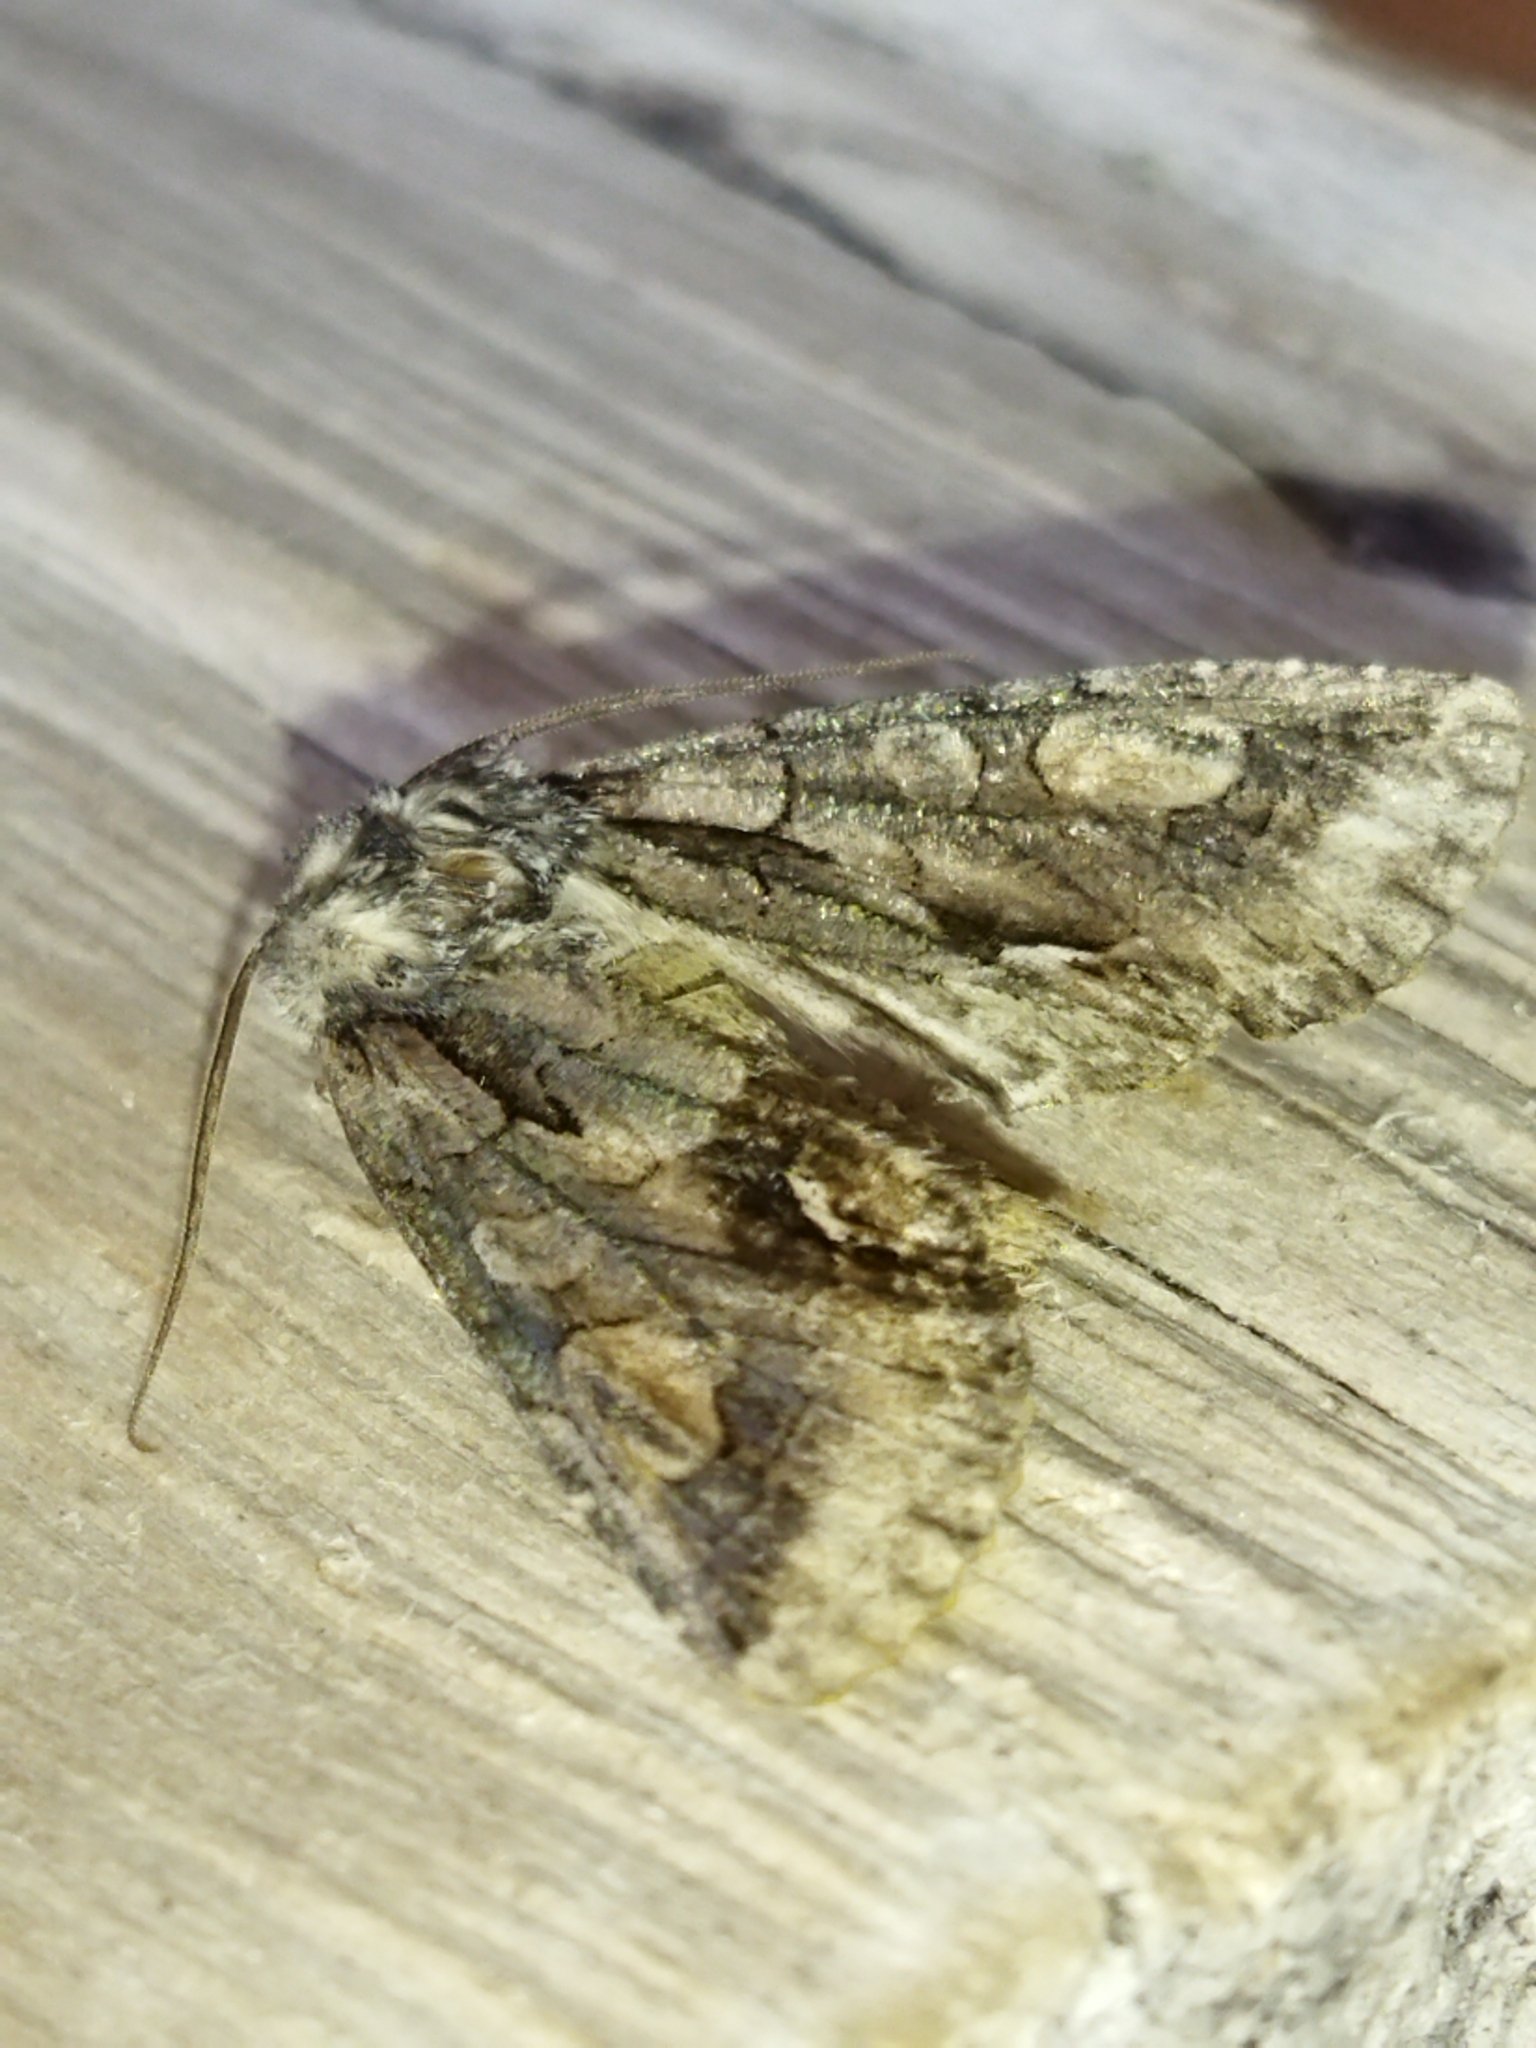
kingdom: Animalia
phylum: Arthropoda
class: Insecta
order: Lepidoptera
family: Noctuidae
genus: Allophyes
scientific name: Allophyes oxyacanthae
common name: Green-brindled crescent
